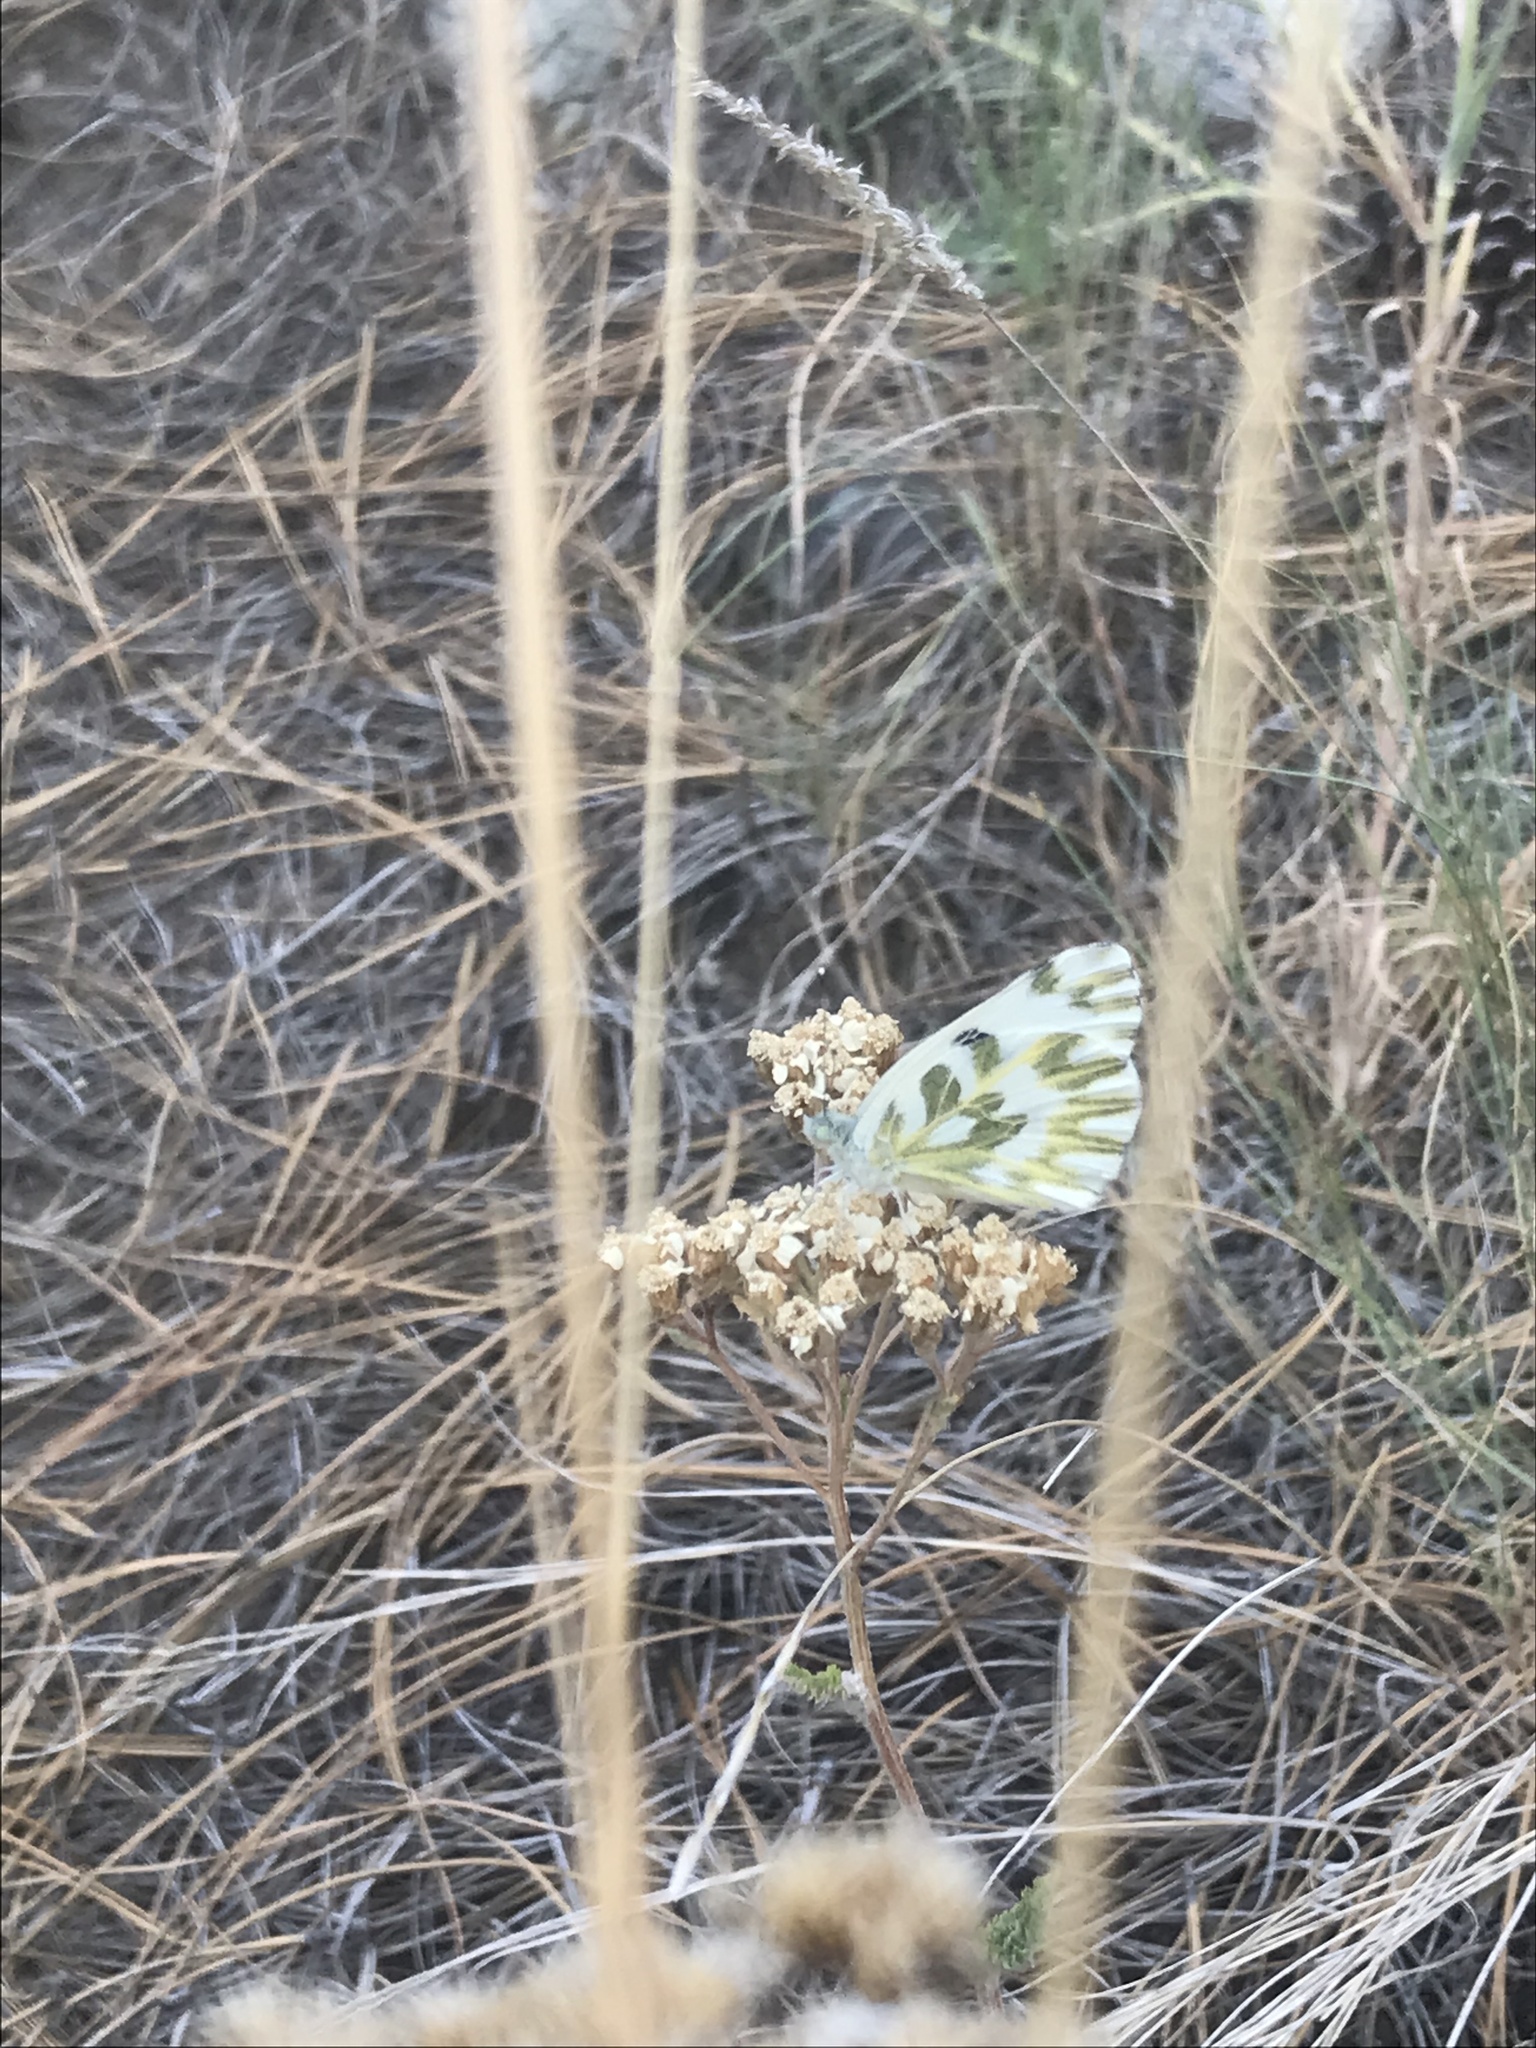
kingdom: Animalia
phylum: Arthropoda
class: Insecta
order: Lepidoptera
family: Pieridae
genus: Pontia
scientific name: Pontia beckerii
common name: Becker's white
